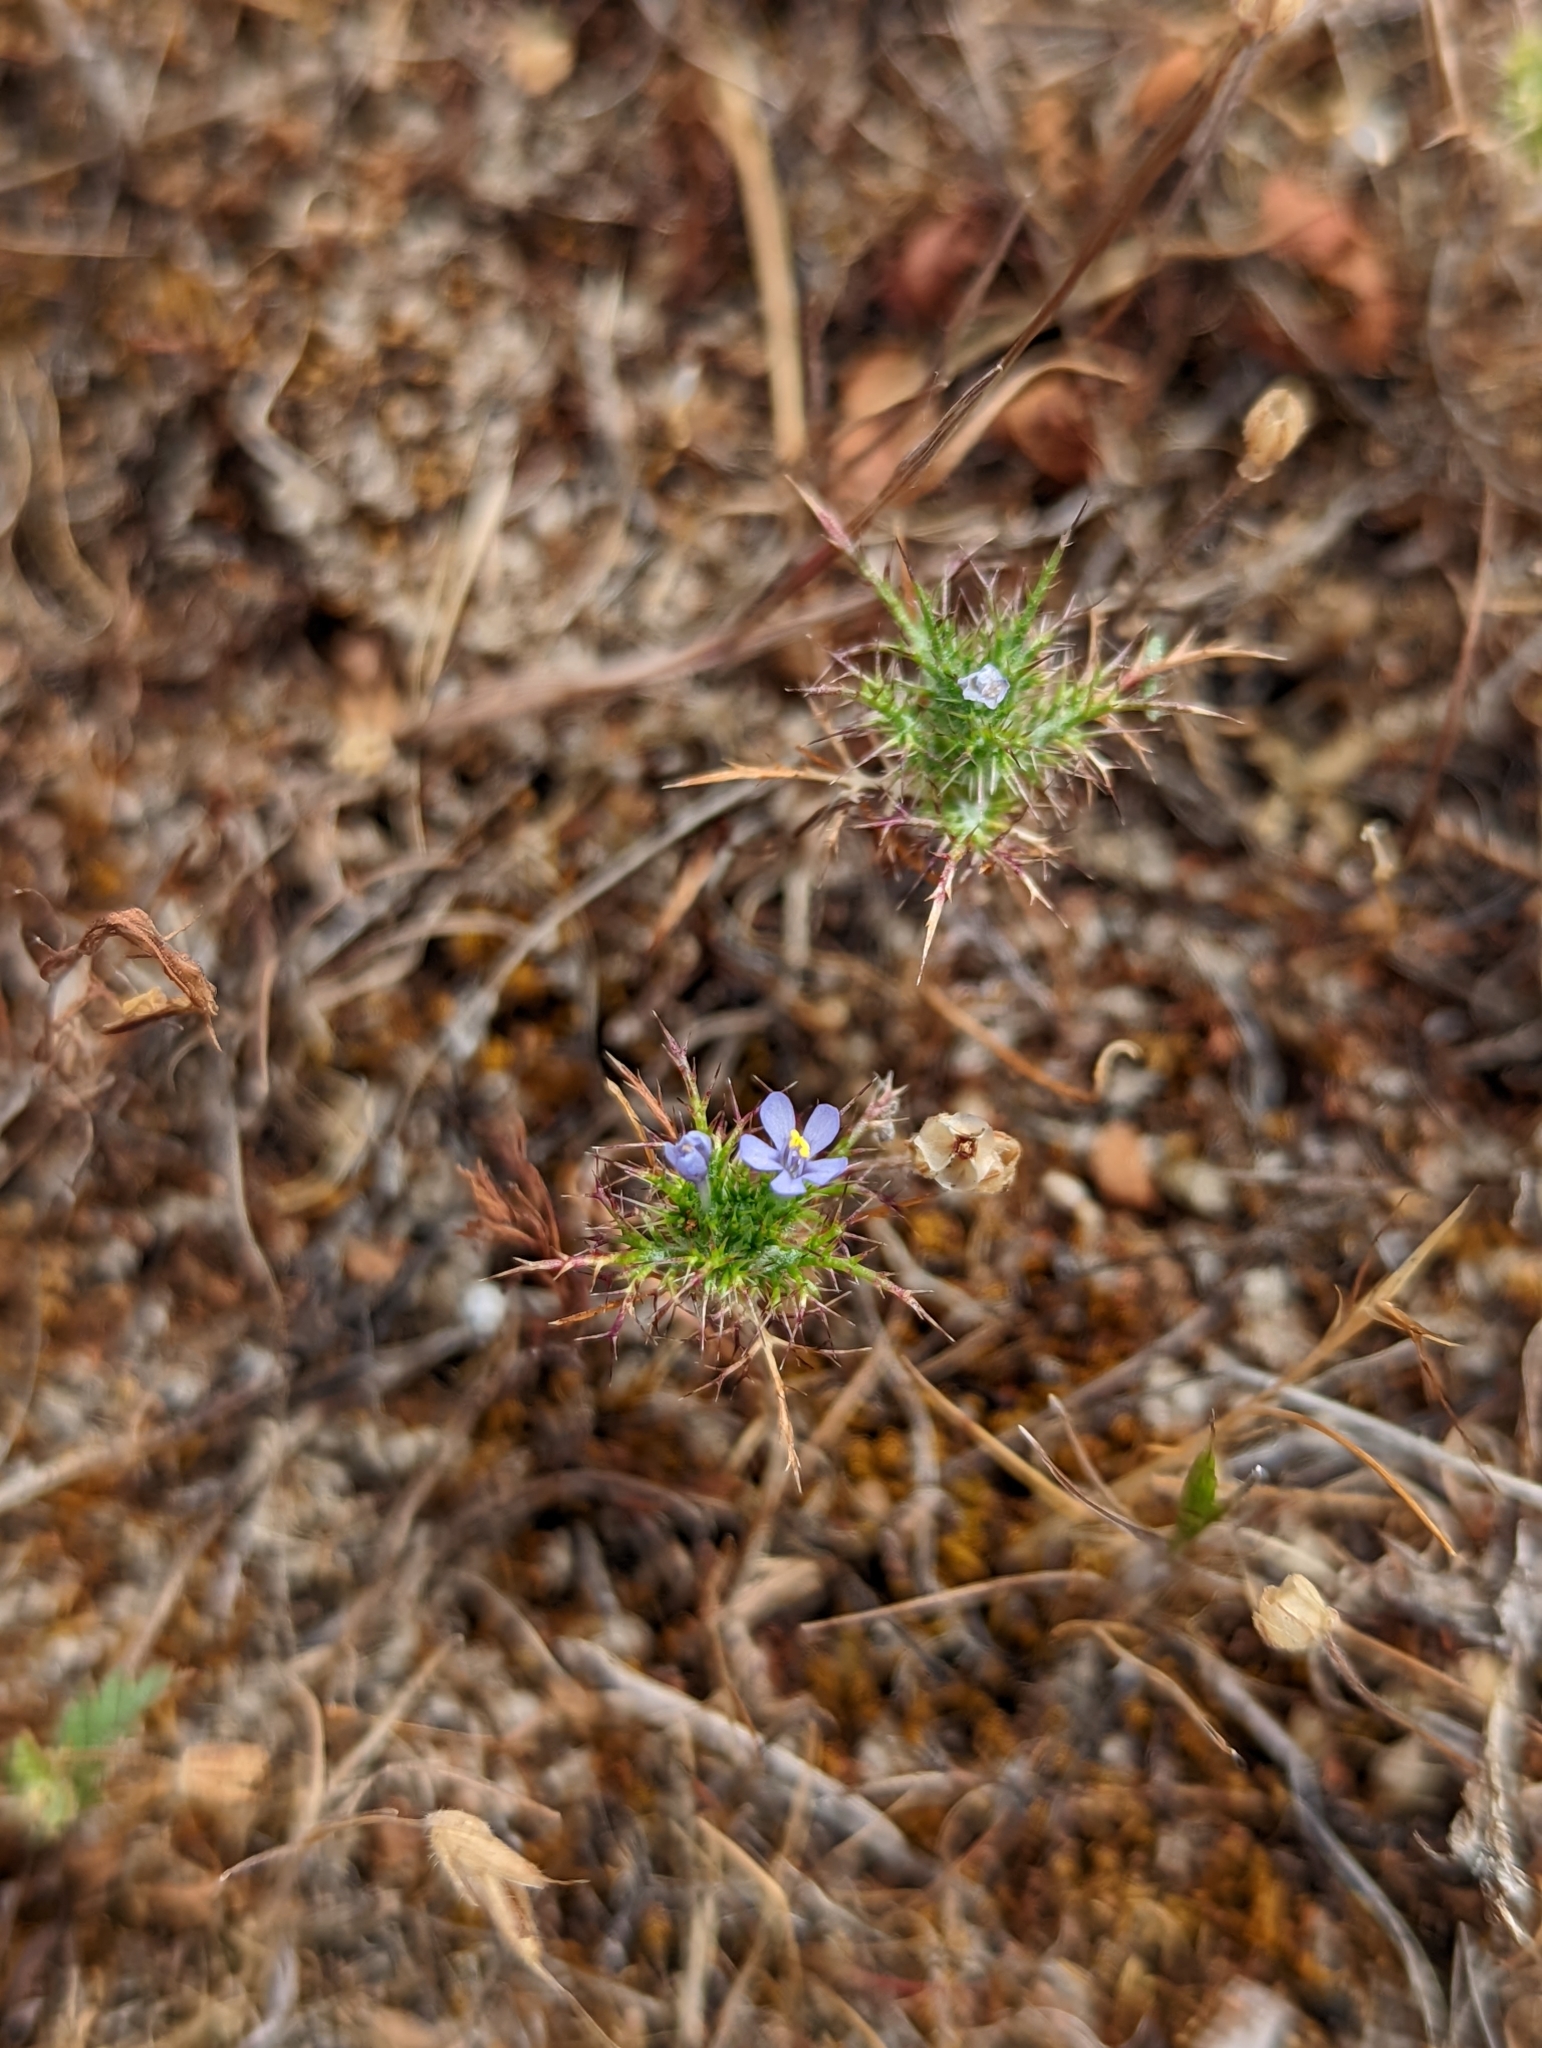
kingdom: Plantae
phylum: Tracheophyta
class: Magnoliopsida
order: Ericales
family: Polemoniaceae
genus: Navarretia
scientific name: Navarretia tagetina
